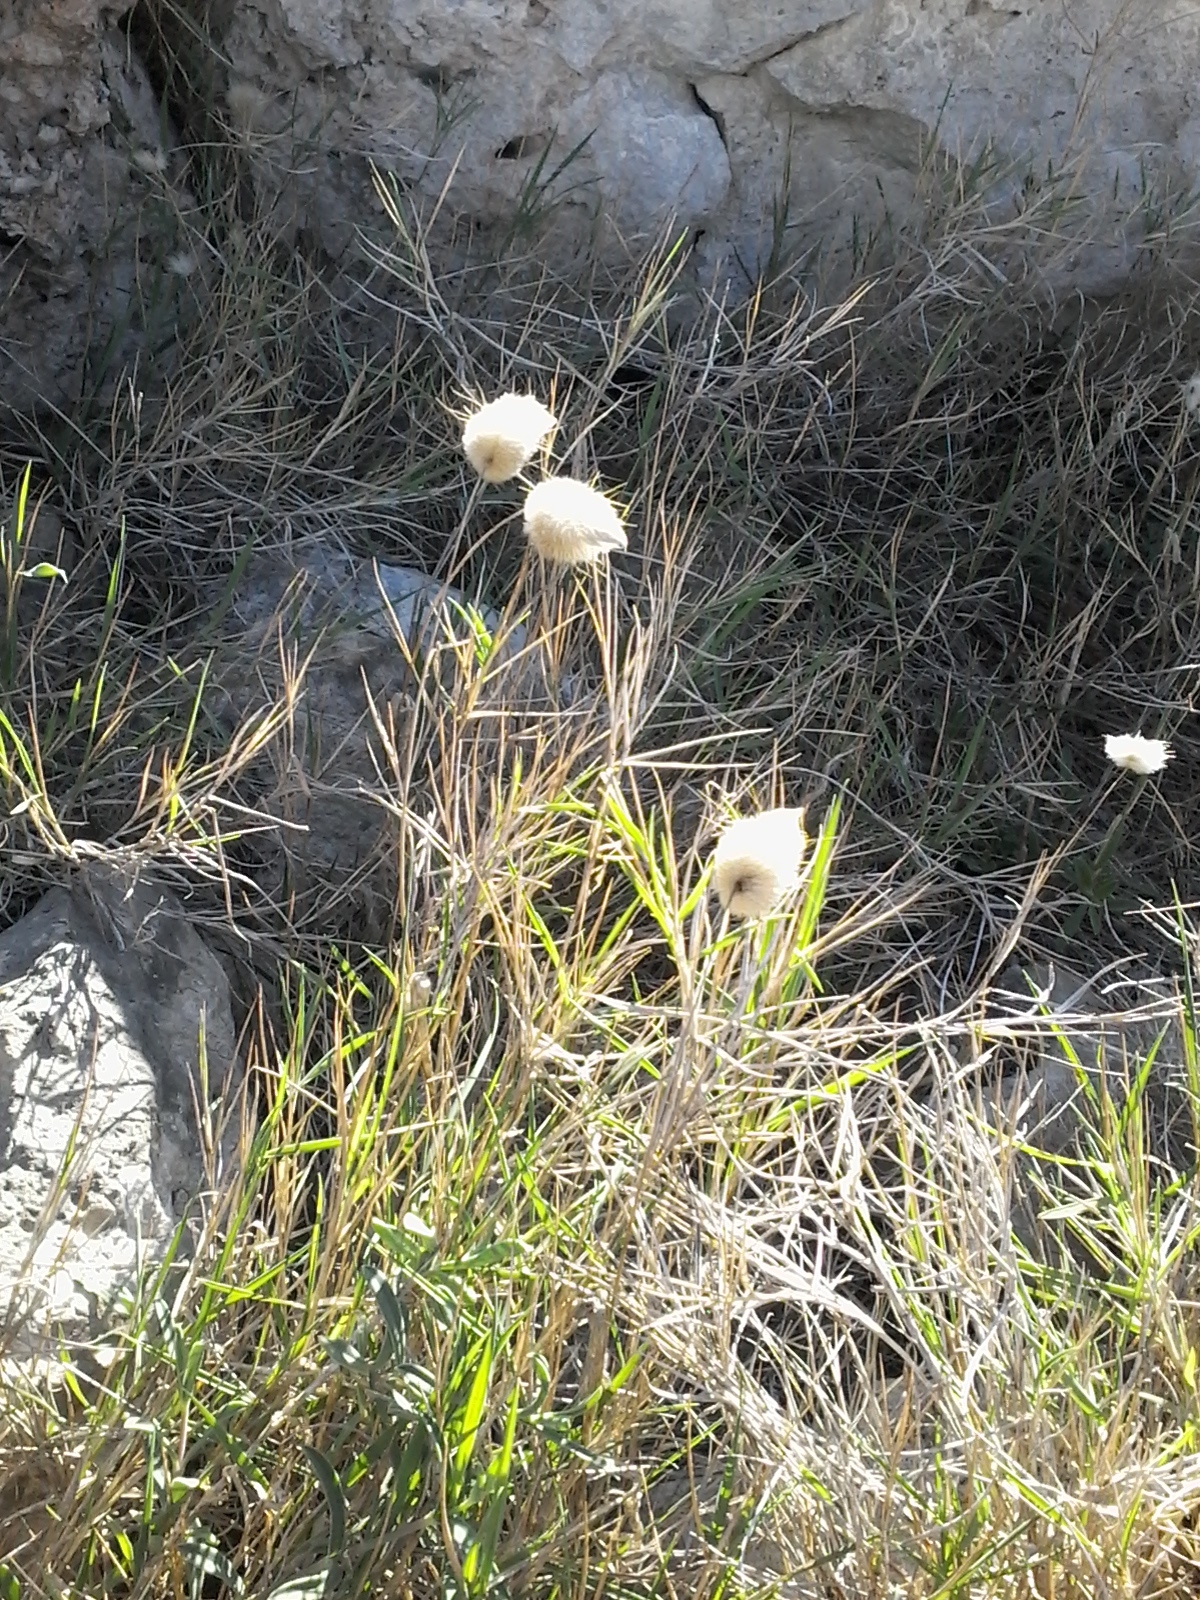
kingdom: Plantae
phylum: Tracheophyta
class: Liliopsida
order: Poales
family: Poaceae
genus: Lagurus
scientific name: Lagurus ovatus
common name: Hare's-tail
